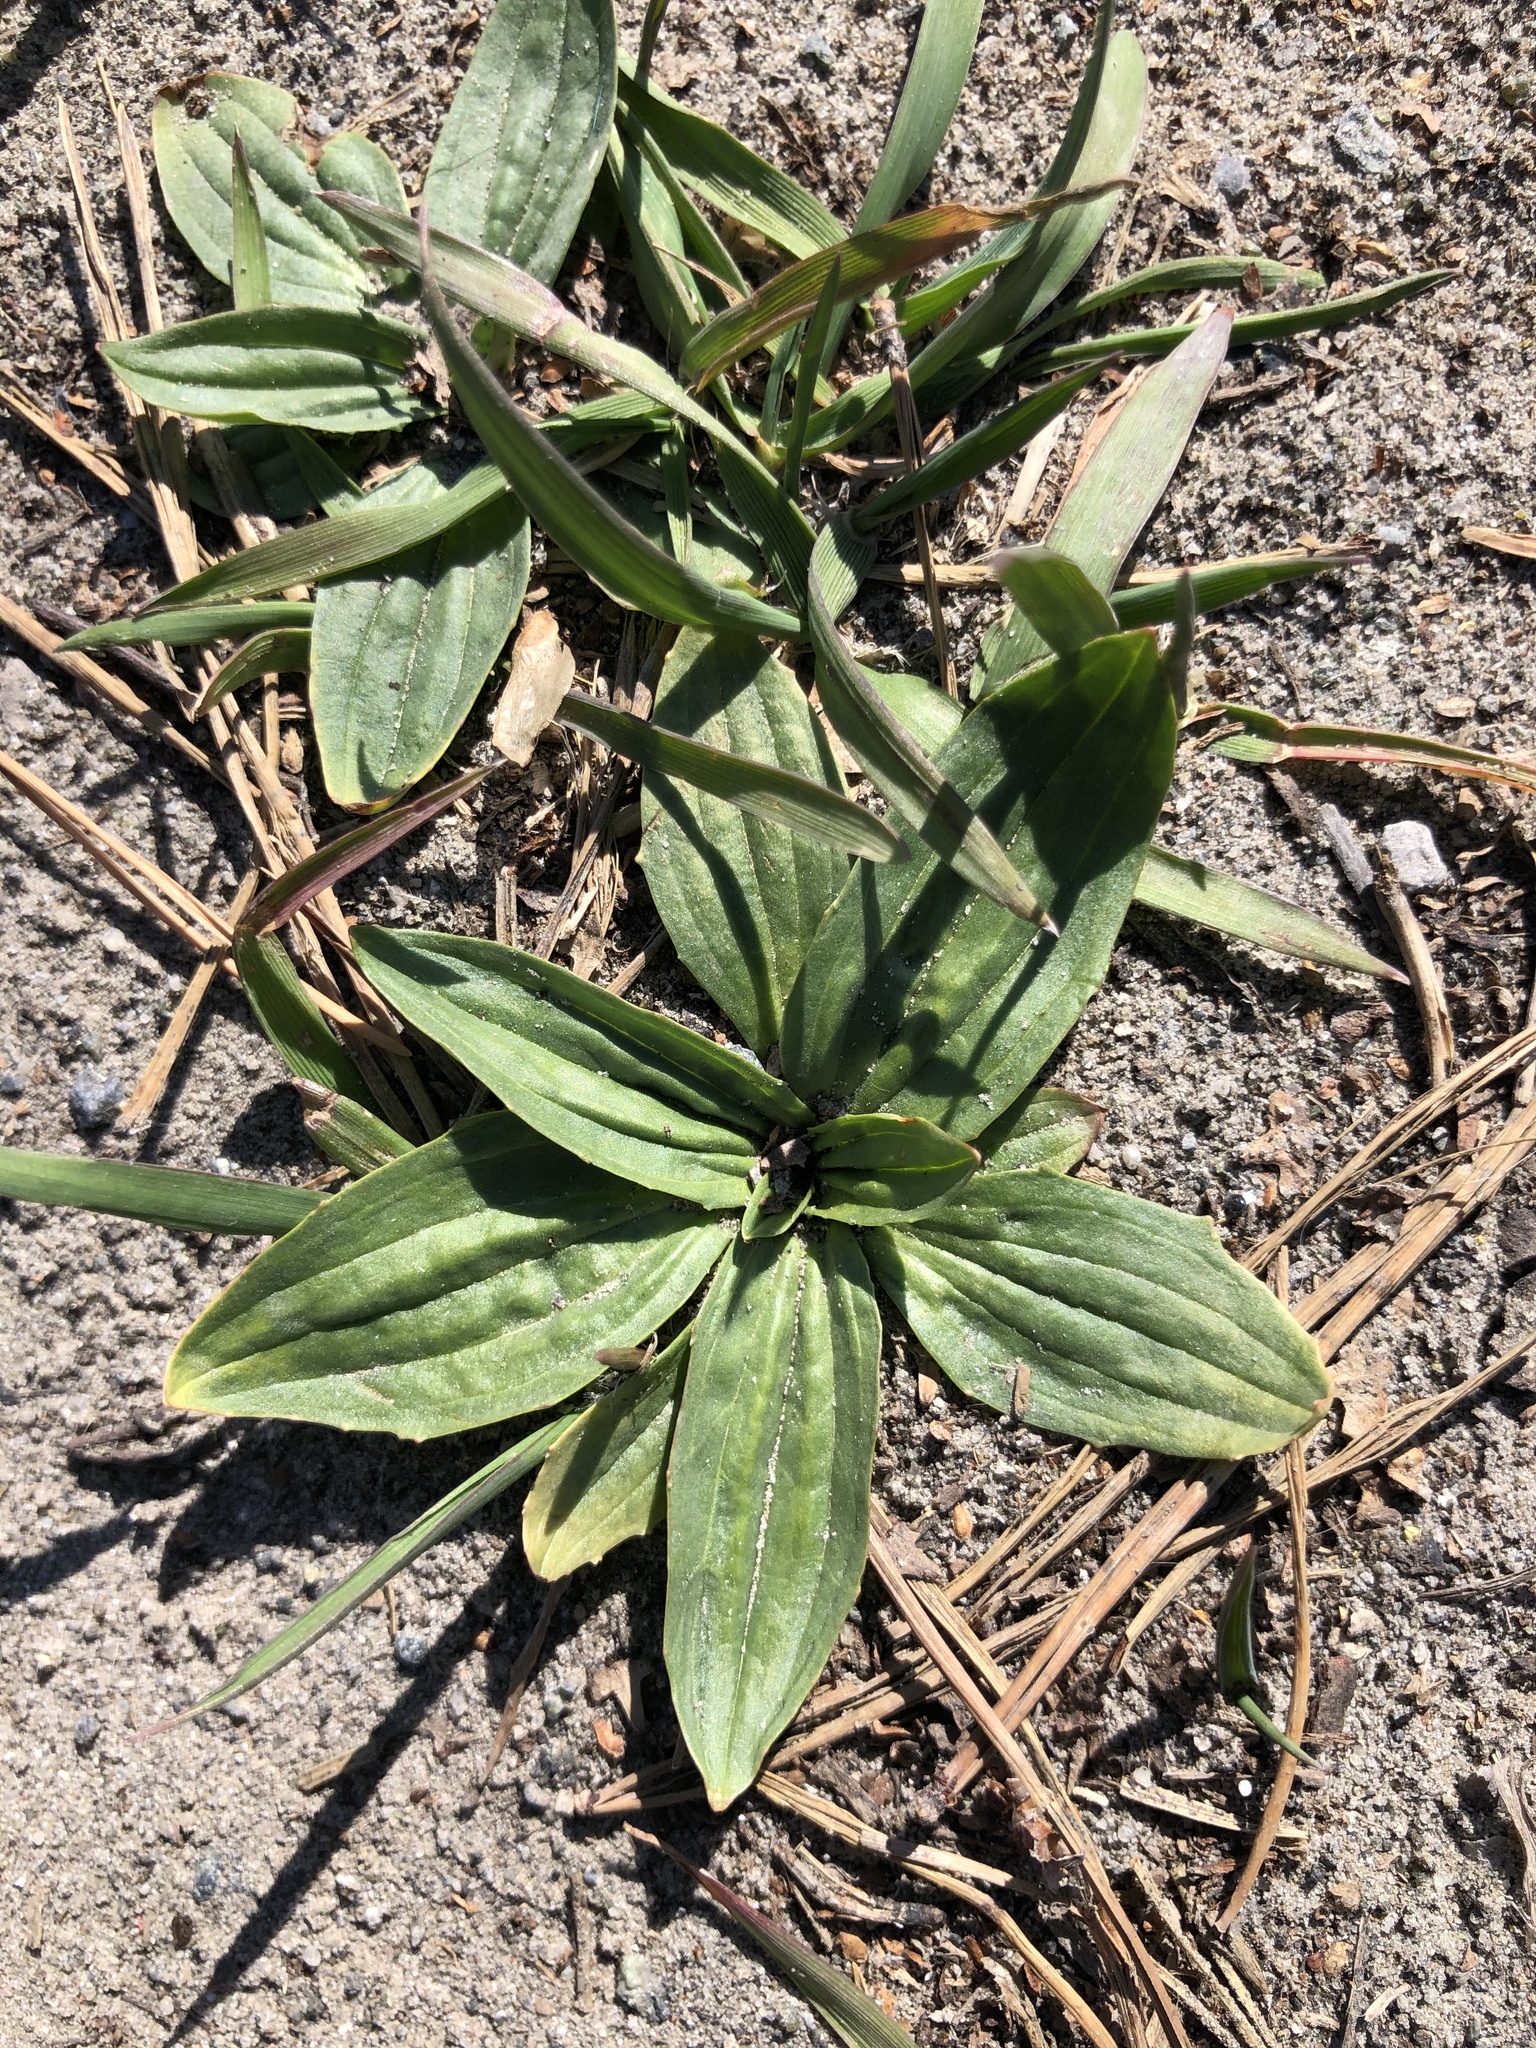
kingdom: Plantae
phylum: Tracheophyta
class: Magnoliopsida
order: Lamiales
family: Plantaginaceae
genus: Plantago
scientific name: Plantago depressa
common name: Depressed plantain
